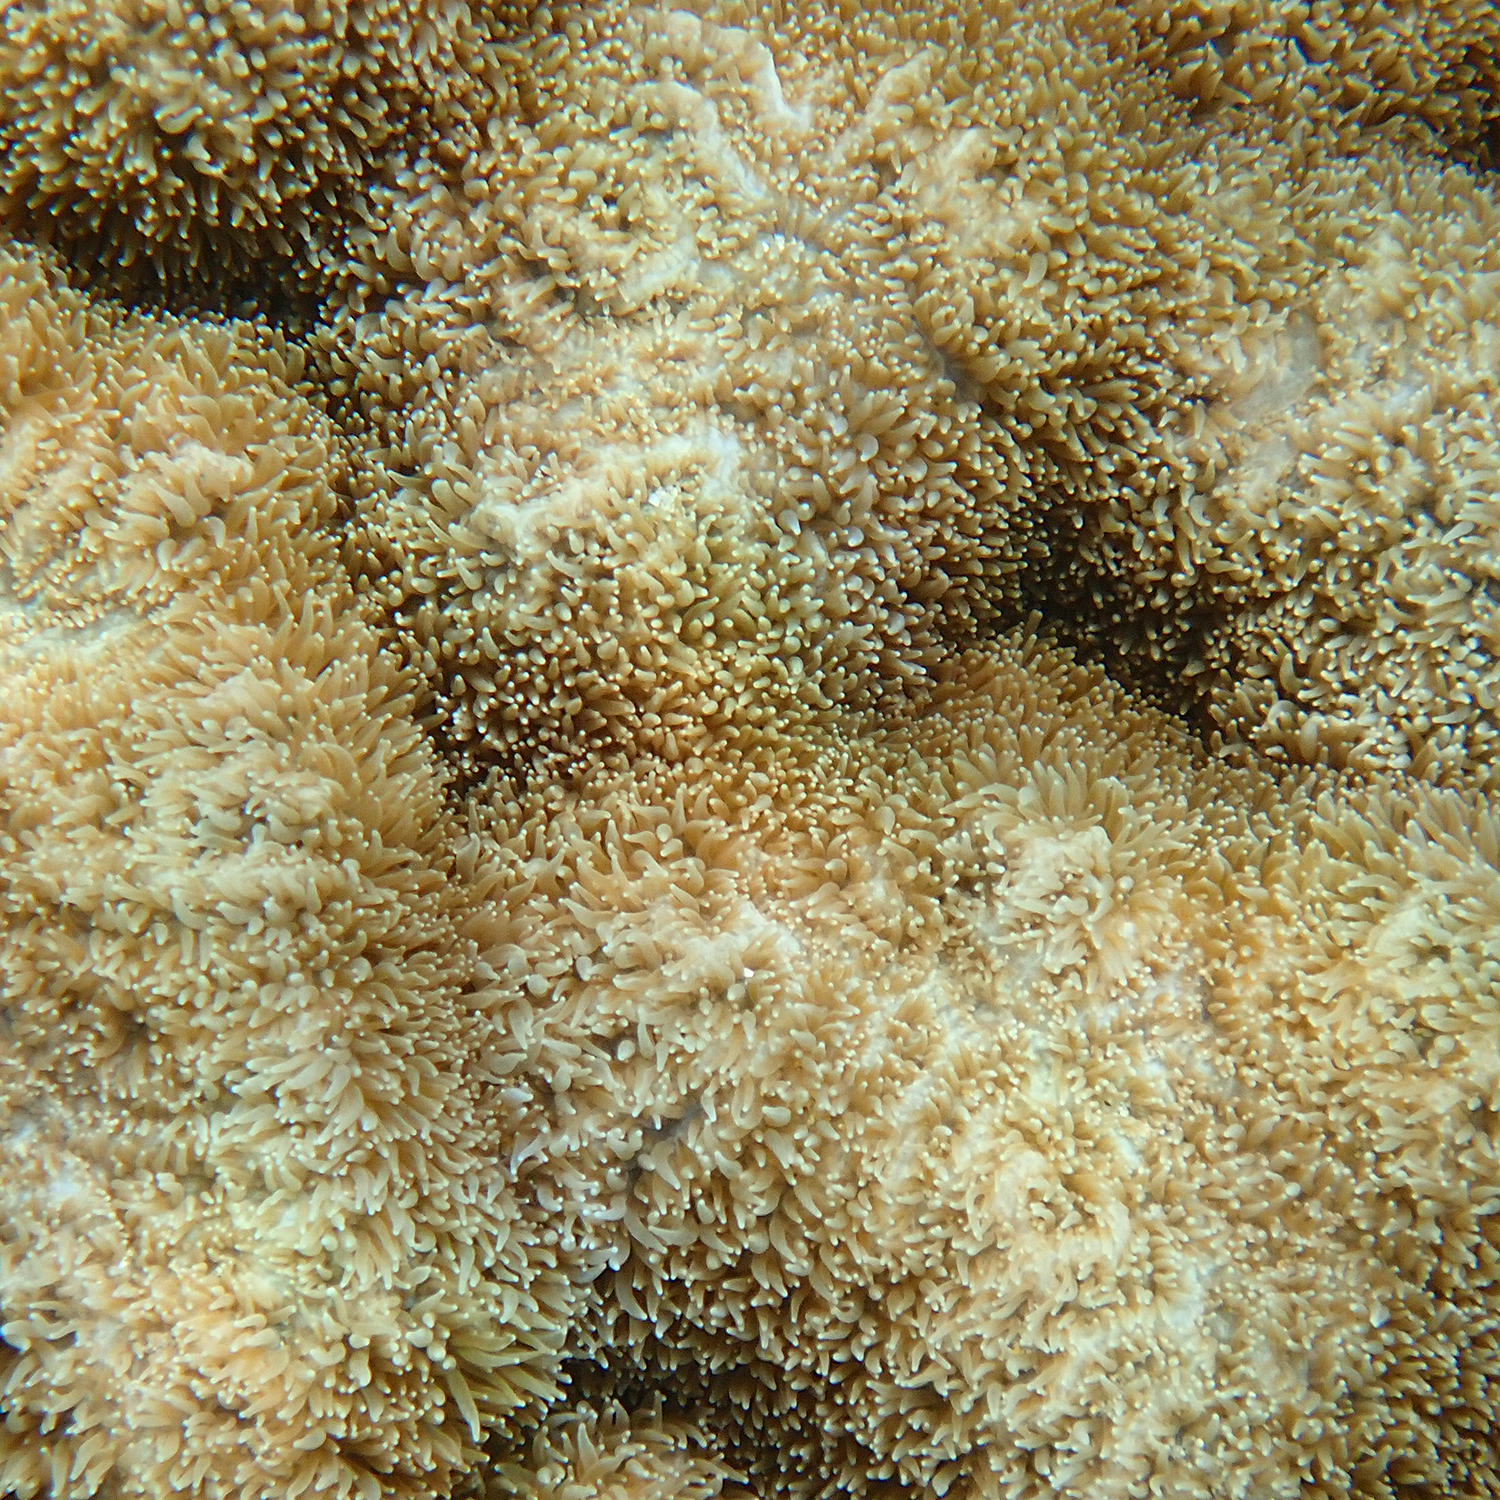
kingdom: Animalia
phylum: Cnidaria
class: Anthozoa
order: Scleractinia
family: Merulinidae
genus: Hydnophora
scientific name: Hydnophora pilosa
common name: Spine coral
